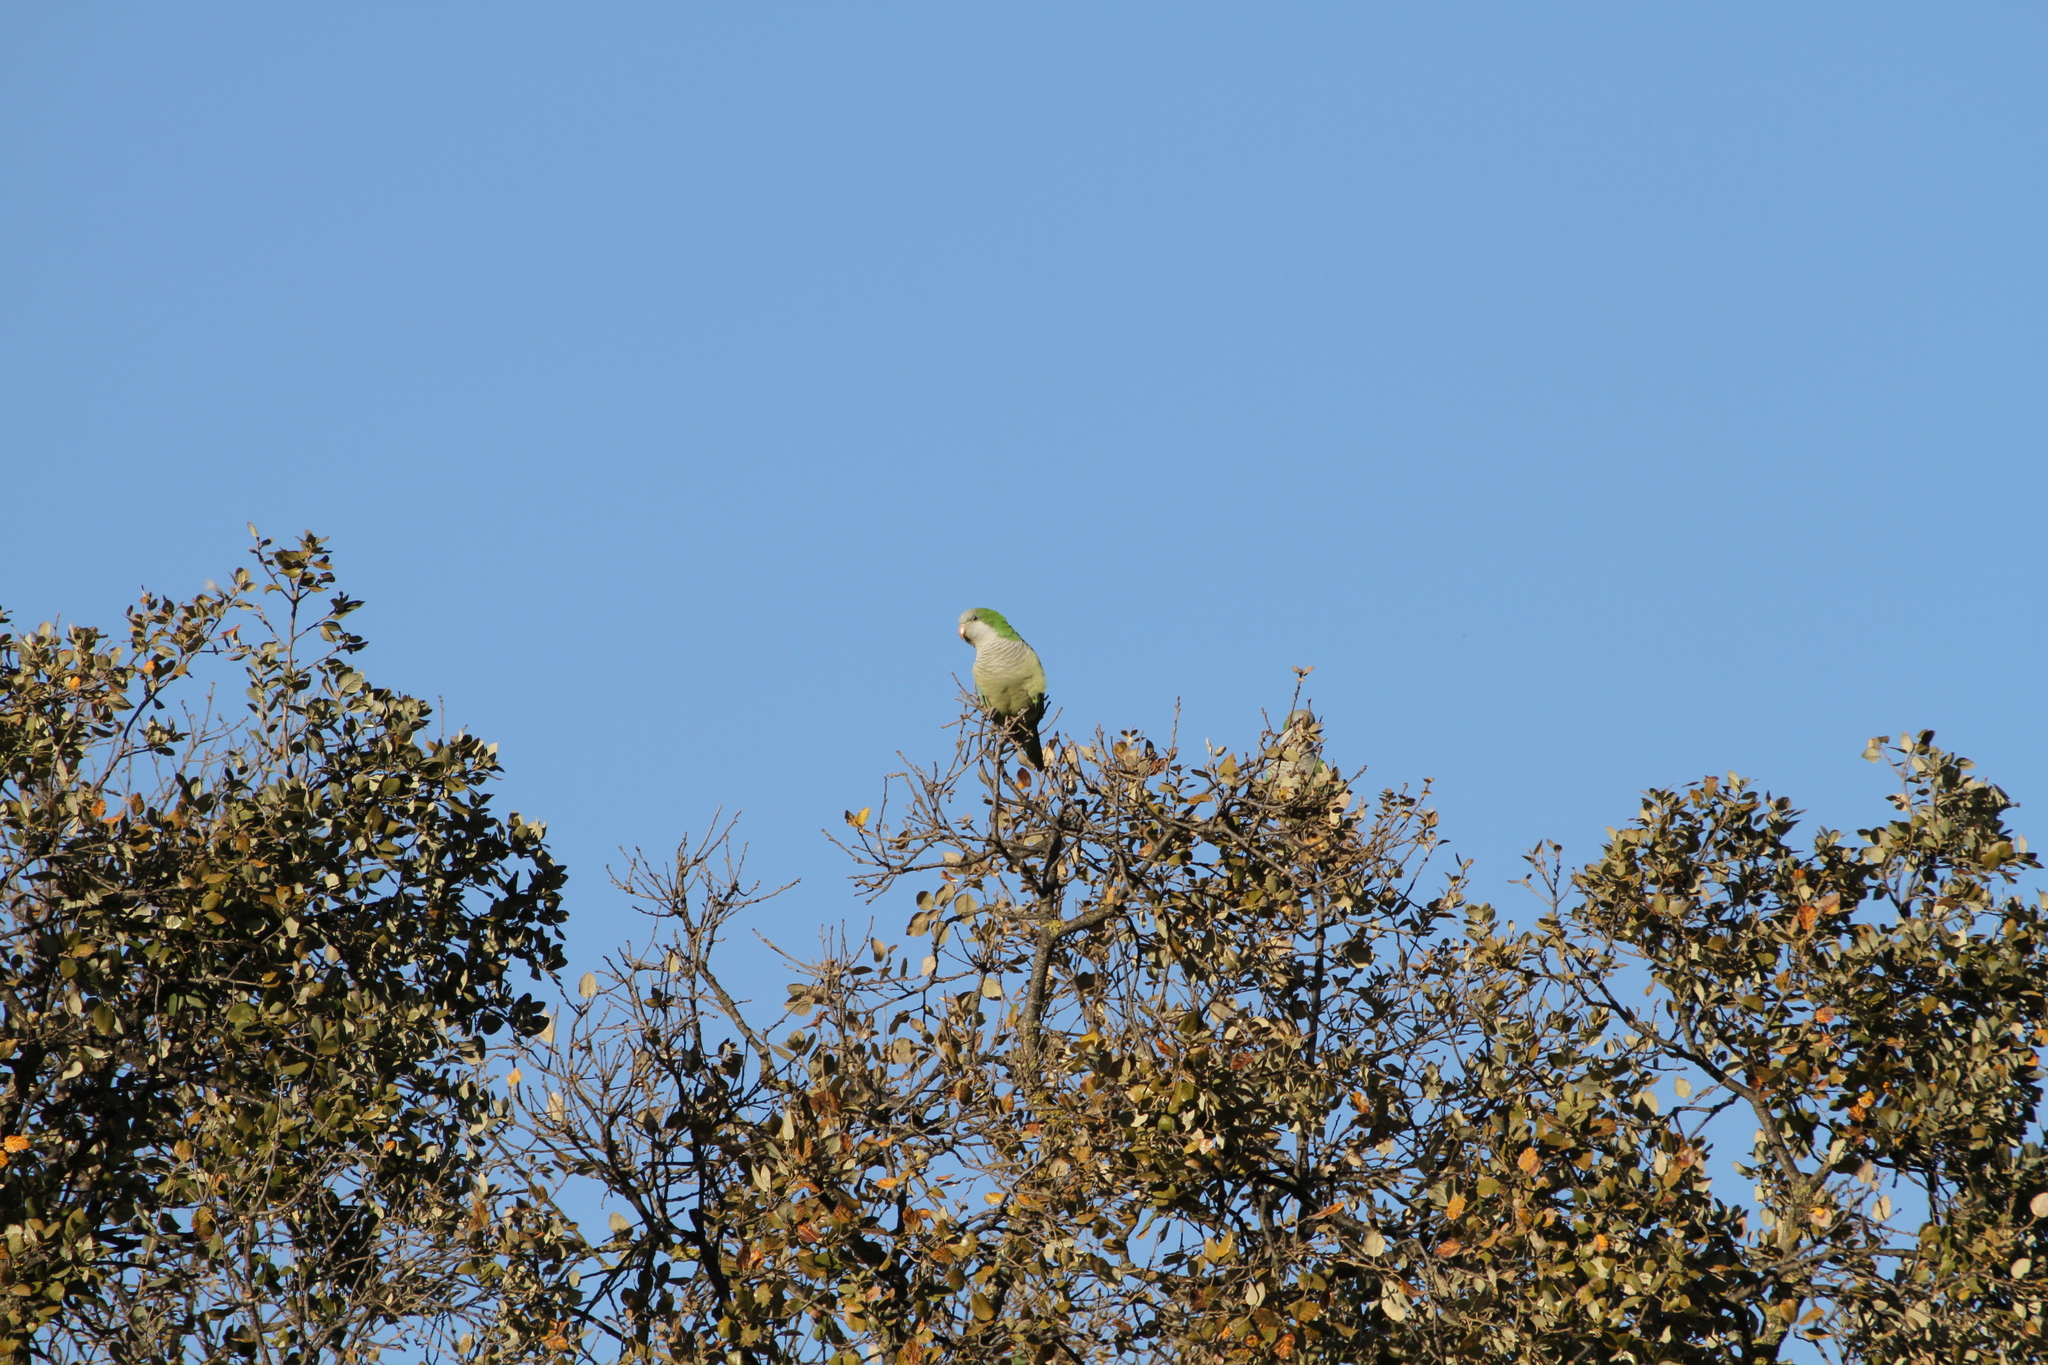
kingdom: Animalia
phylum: Chordata
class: Aves
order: Psittaciformes
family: Psittacidae
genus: Myiopsitta
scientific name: Myiopsitta monachus
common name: Monk parakeet
